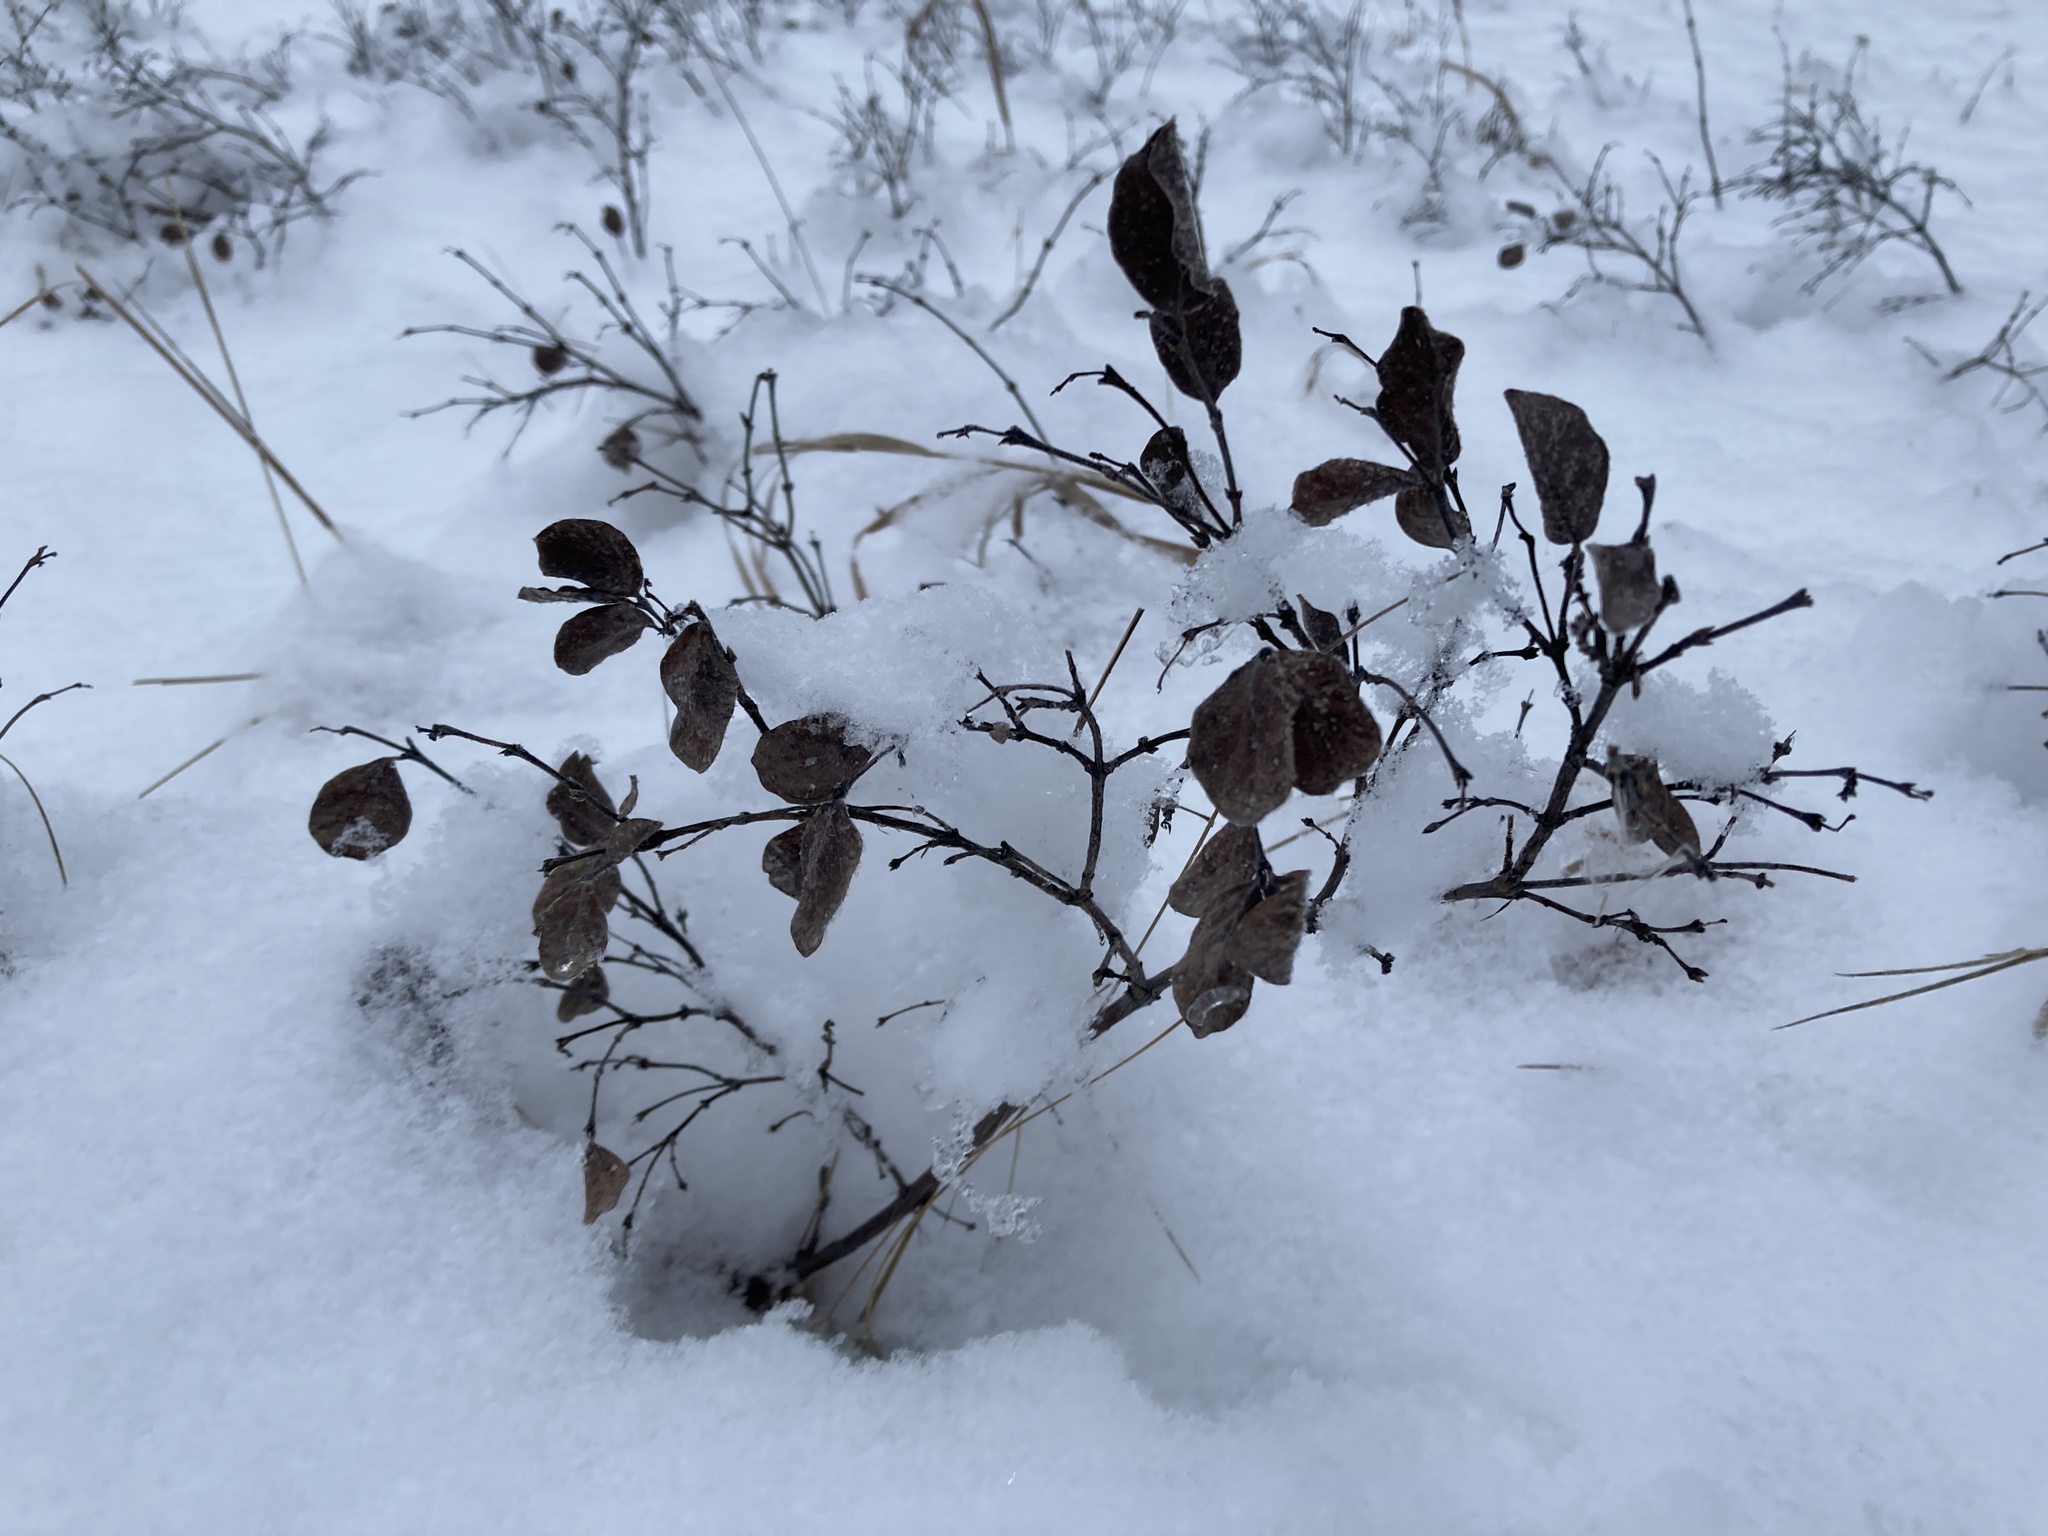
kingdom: Plantae
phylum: Tracheophyta
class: Magnoliopsida
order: Dipsacales
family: Caprifoliaceae
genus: Symphoricarpos
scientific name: Symphoricarpos occidentalis
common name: Wolfberry
